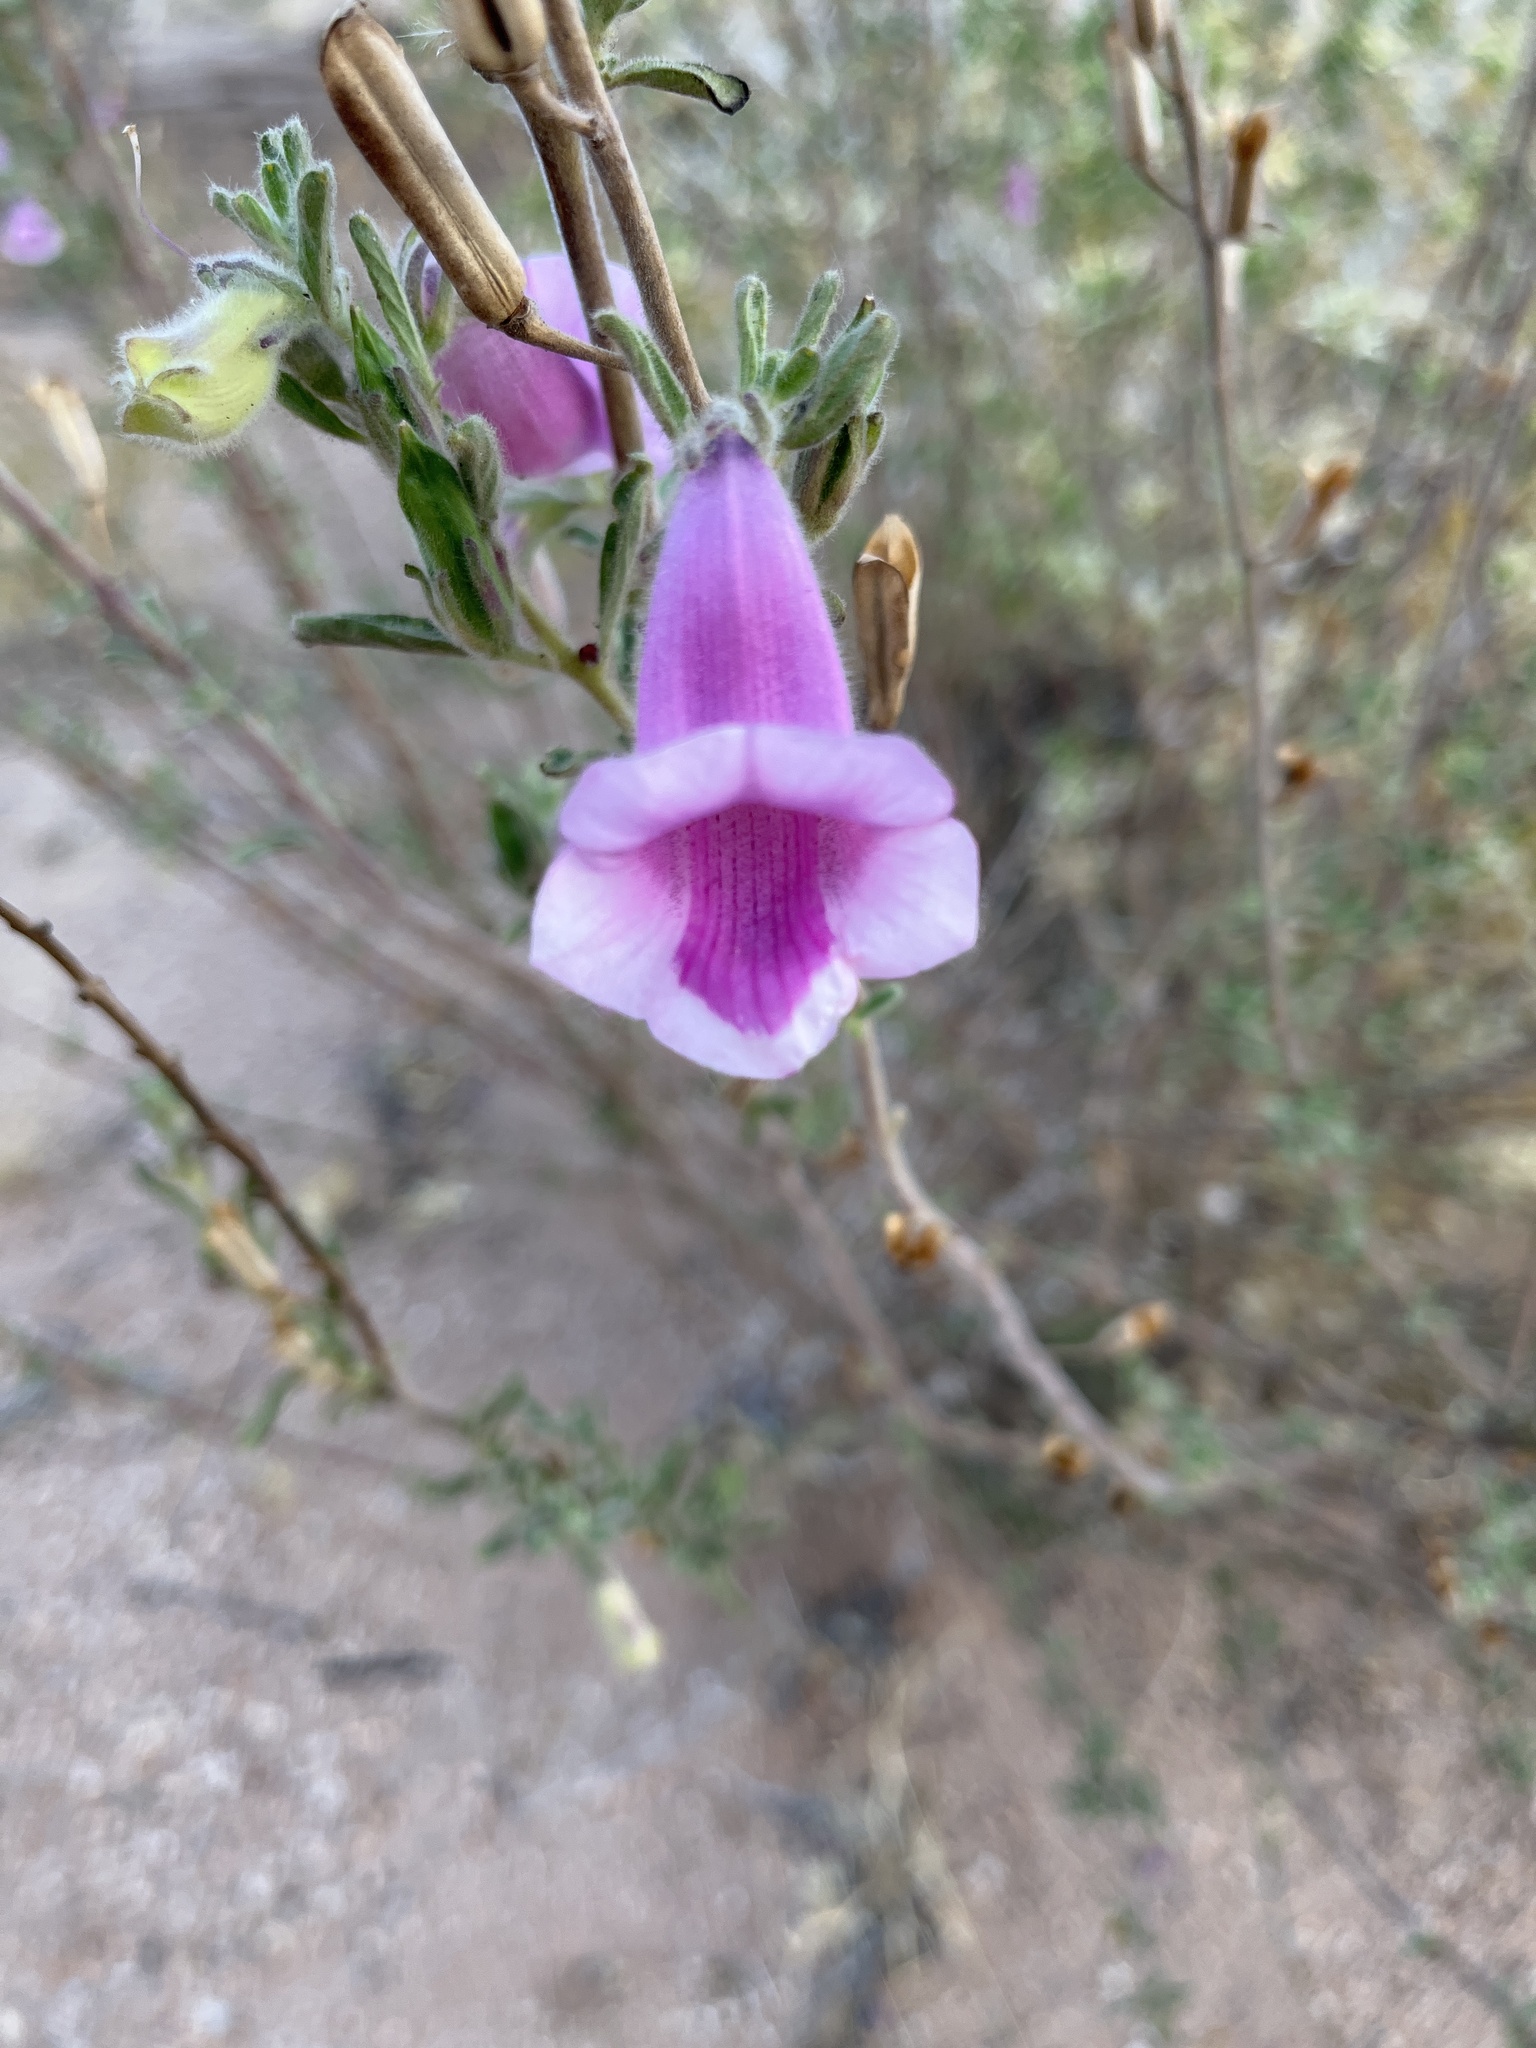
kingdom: Plantae
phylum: Tracheophyta
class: Magnoliopsida
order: Lamiales
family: Pedaliaceae
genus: Sesamum
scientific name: Sesamum rigidum
